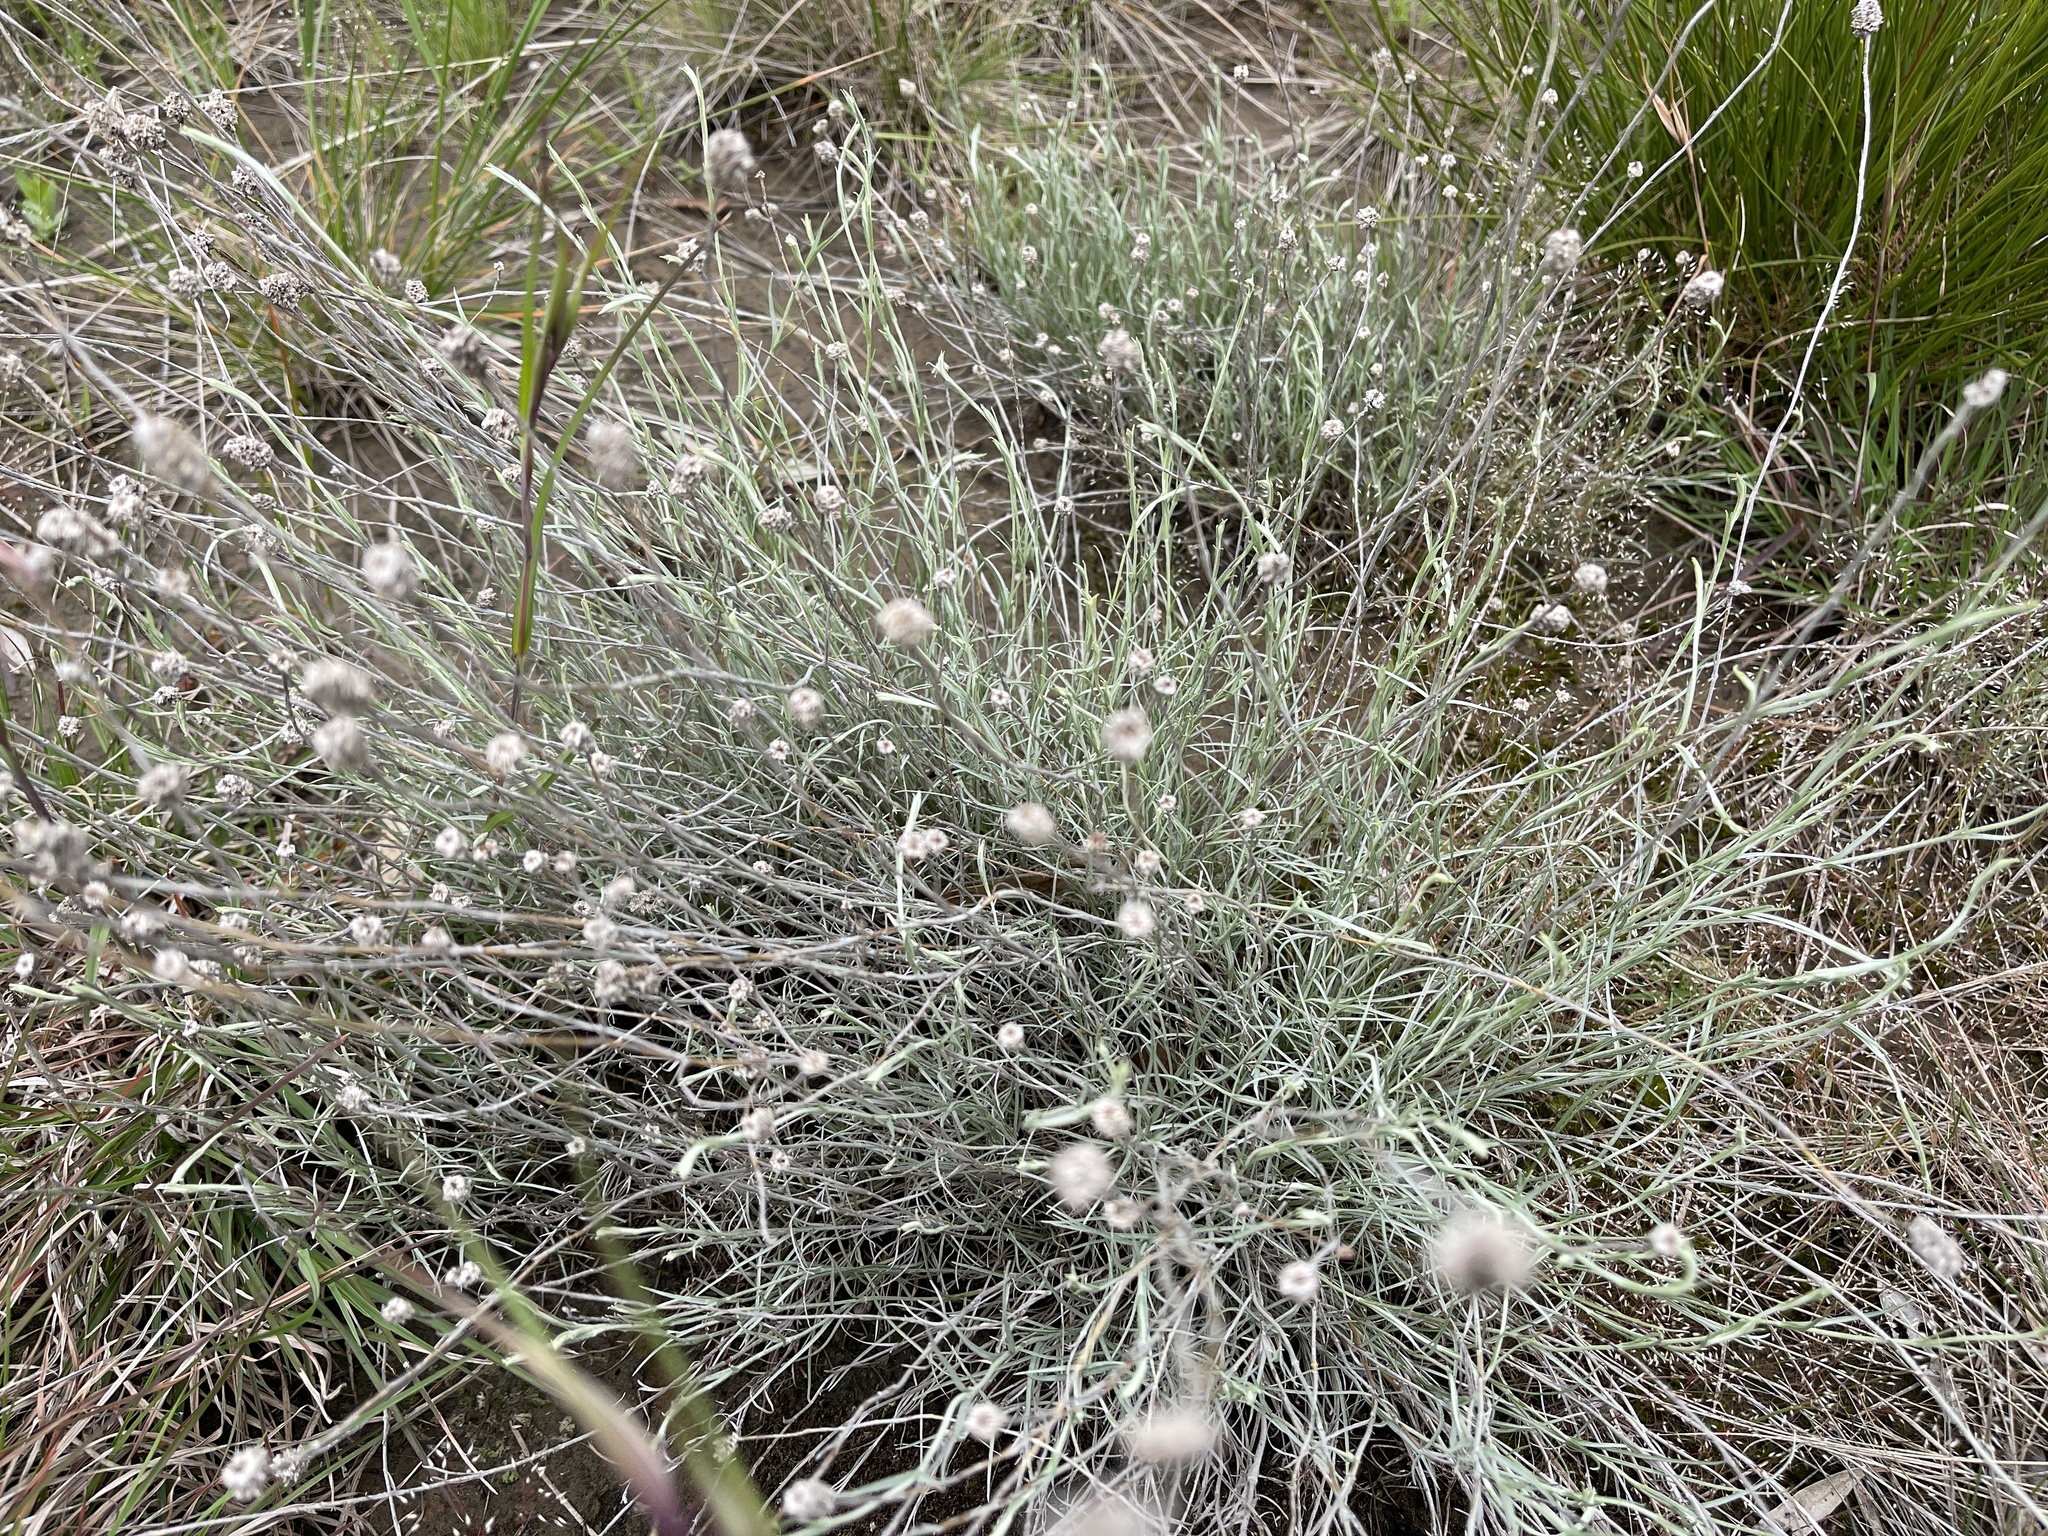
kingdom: Plantae
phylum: Tracheophyta
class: Magnoliopsida
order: Asterales
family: Asteraceae
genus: Calocephalus
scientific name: Calocephalus citreus
